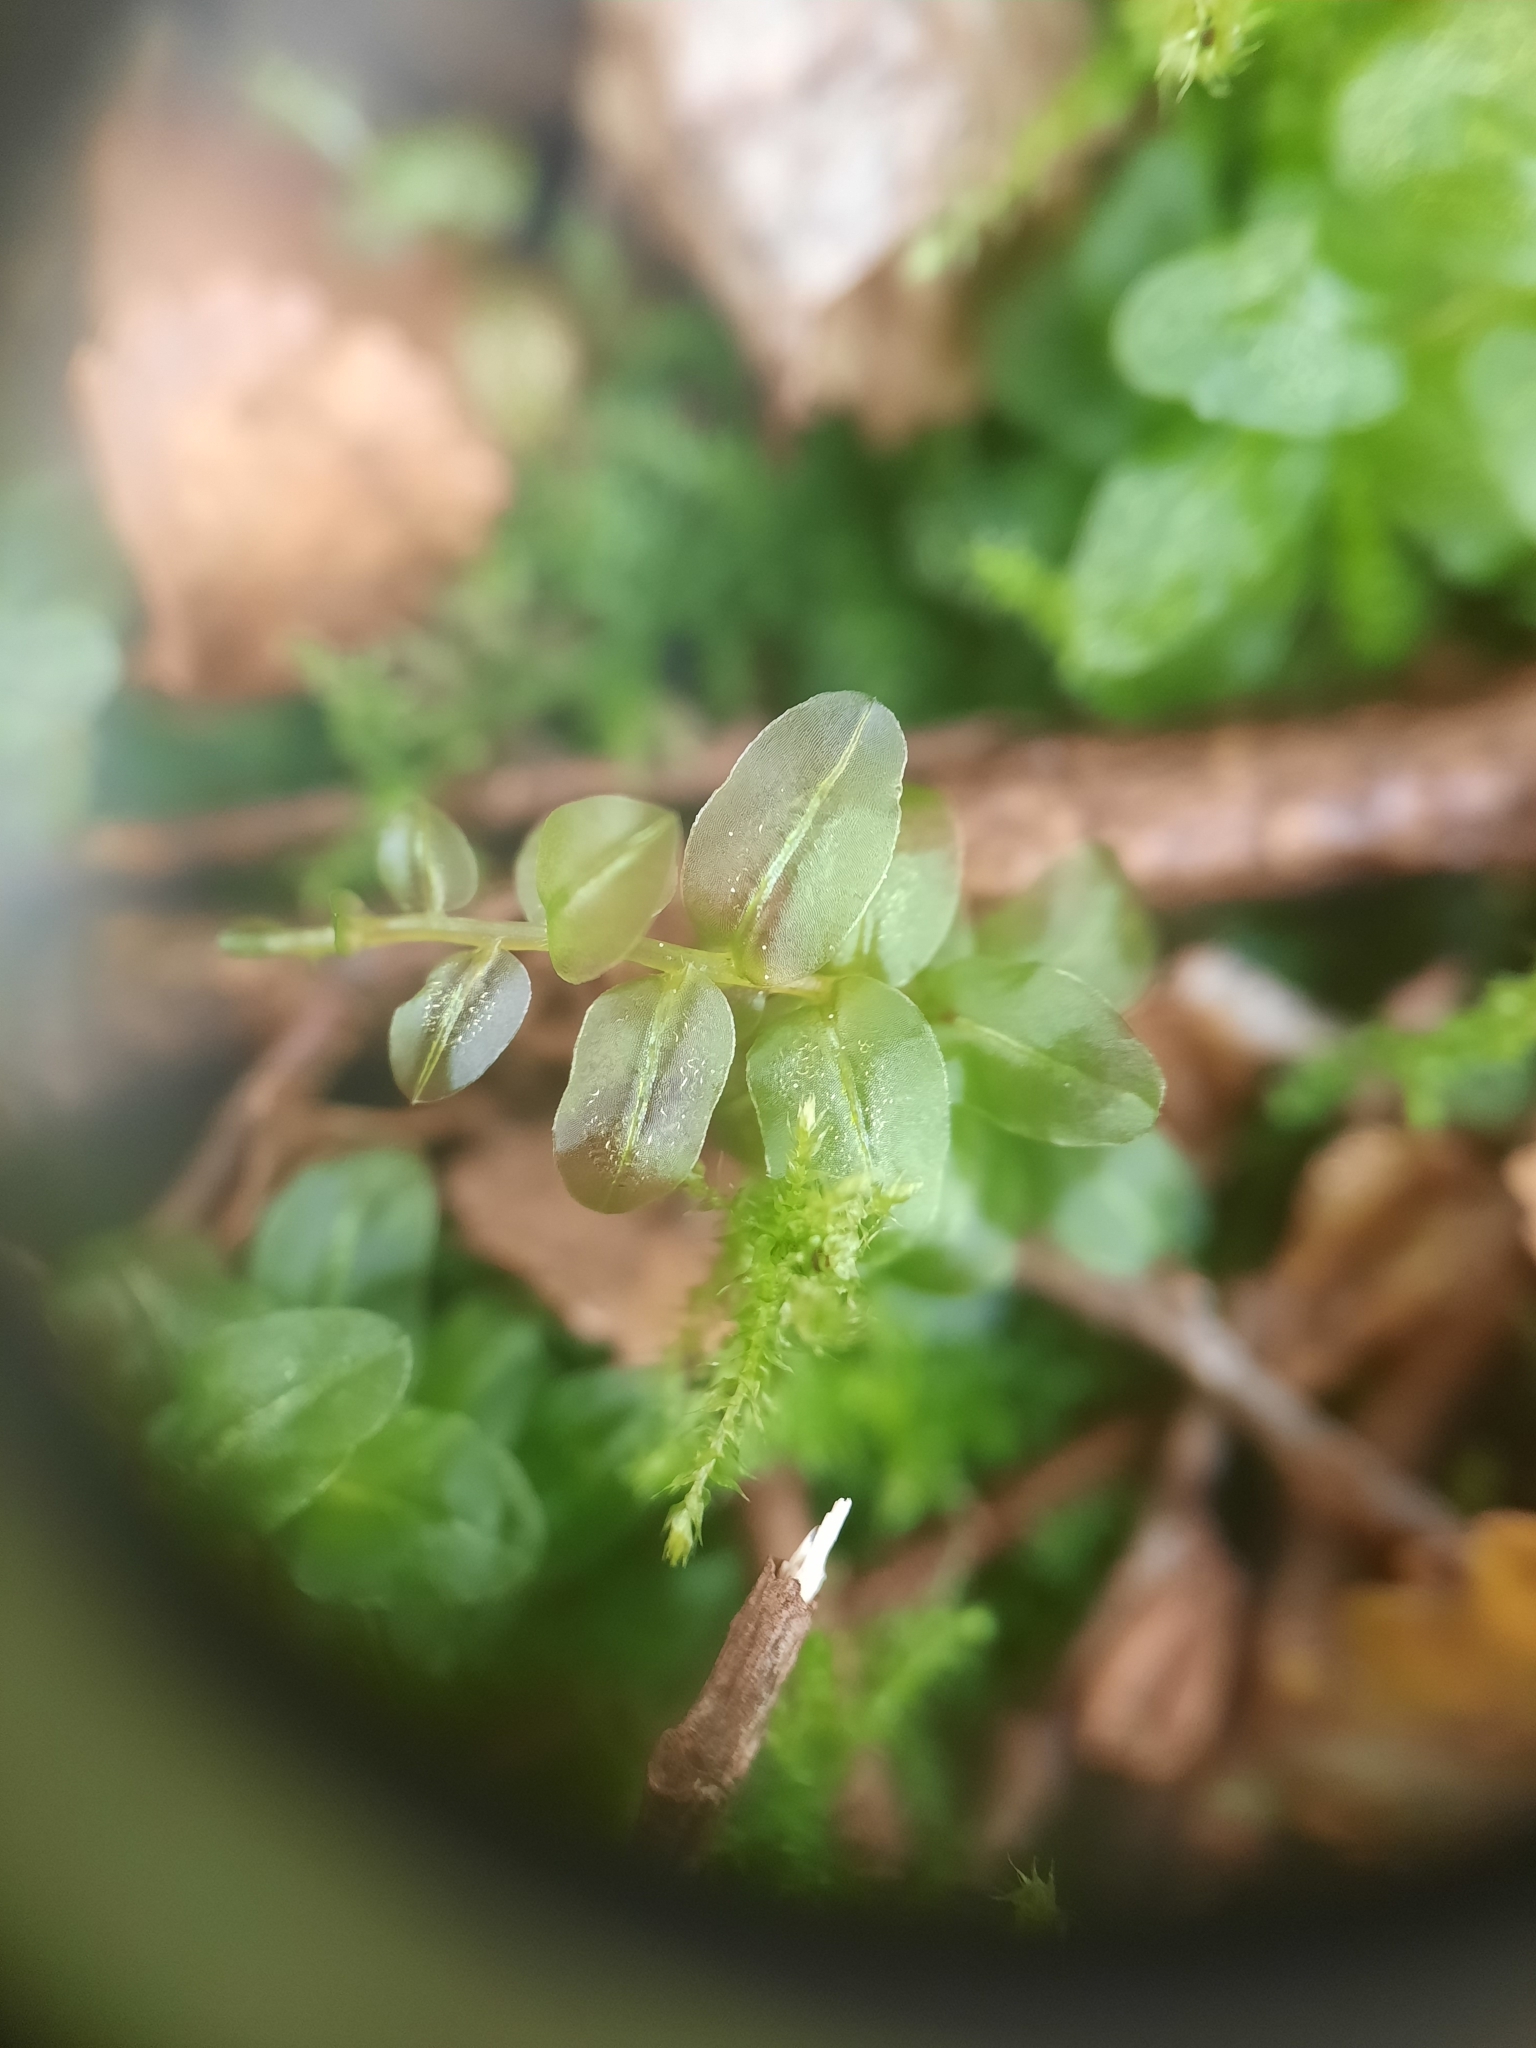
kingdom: Plantae
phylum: Bryophyta
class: Bryopsida
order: Bryales
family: Mniaceae
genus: Plagiomnium
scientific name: Plagiomnium novae-zealandiae
